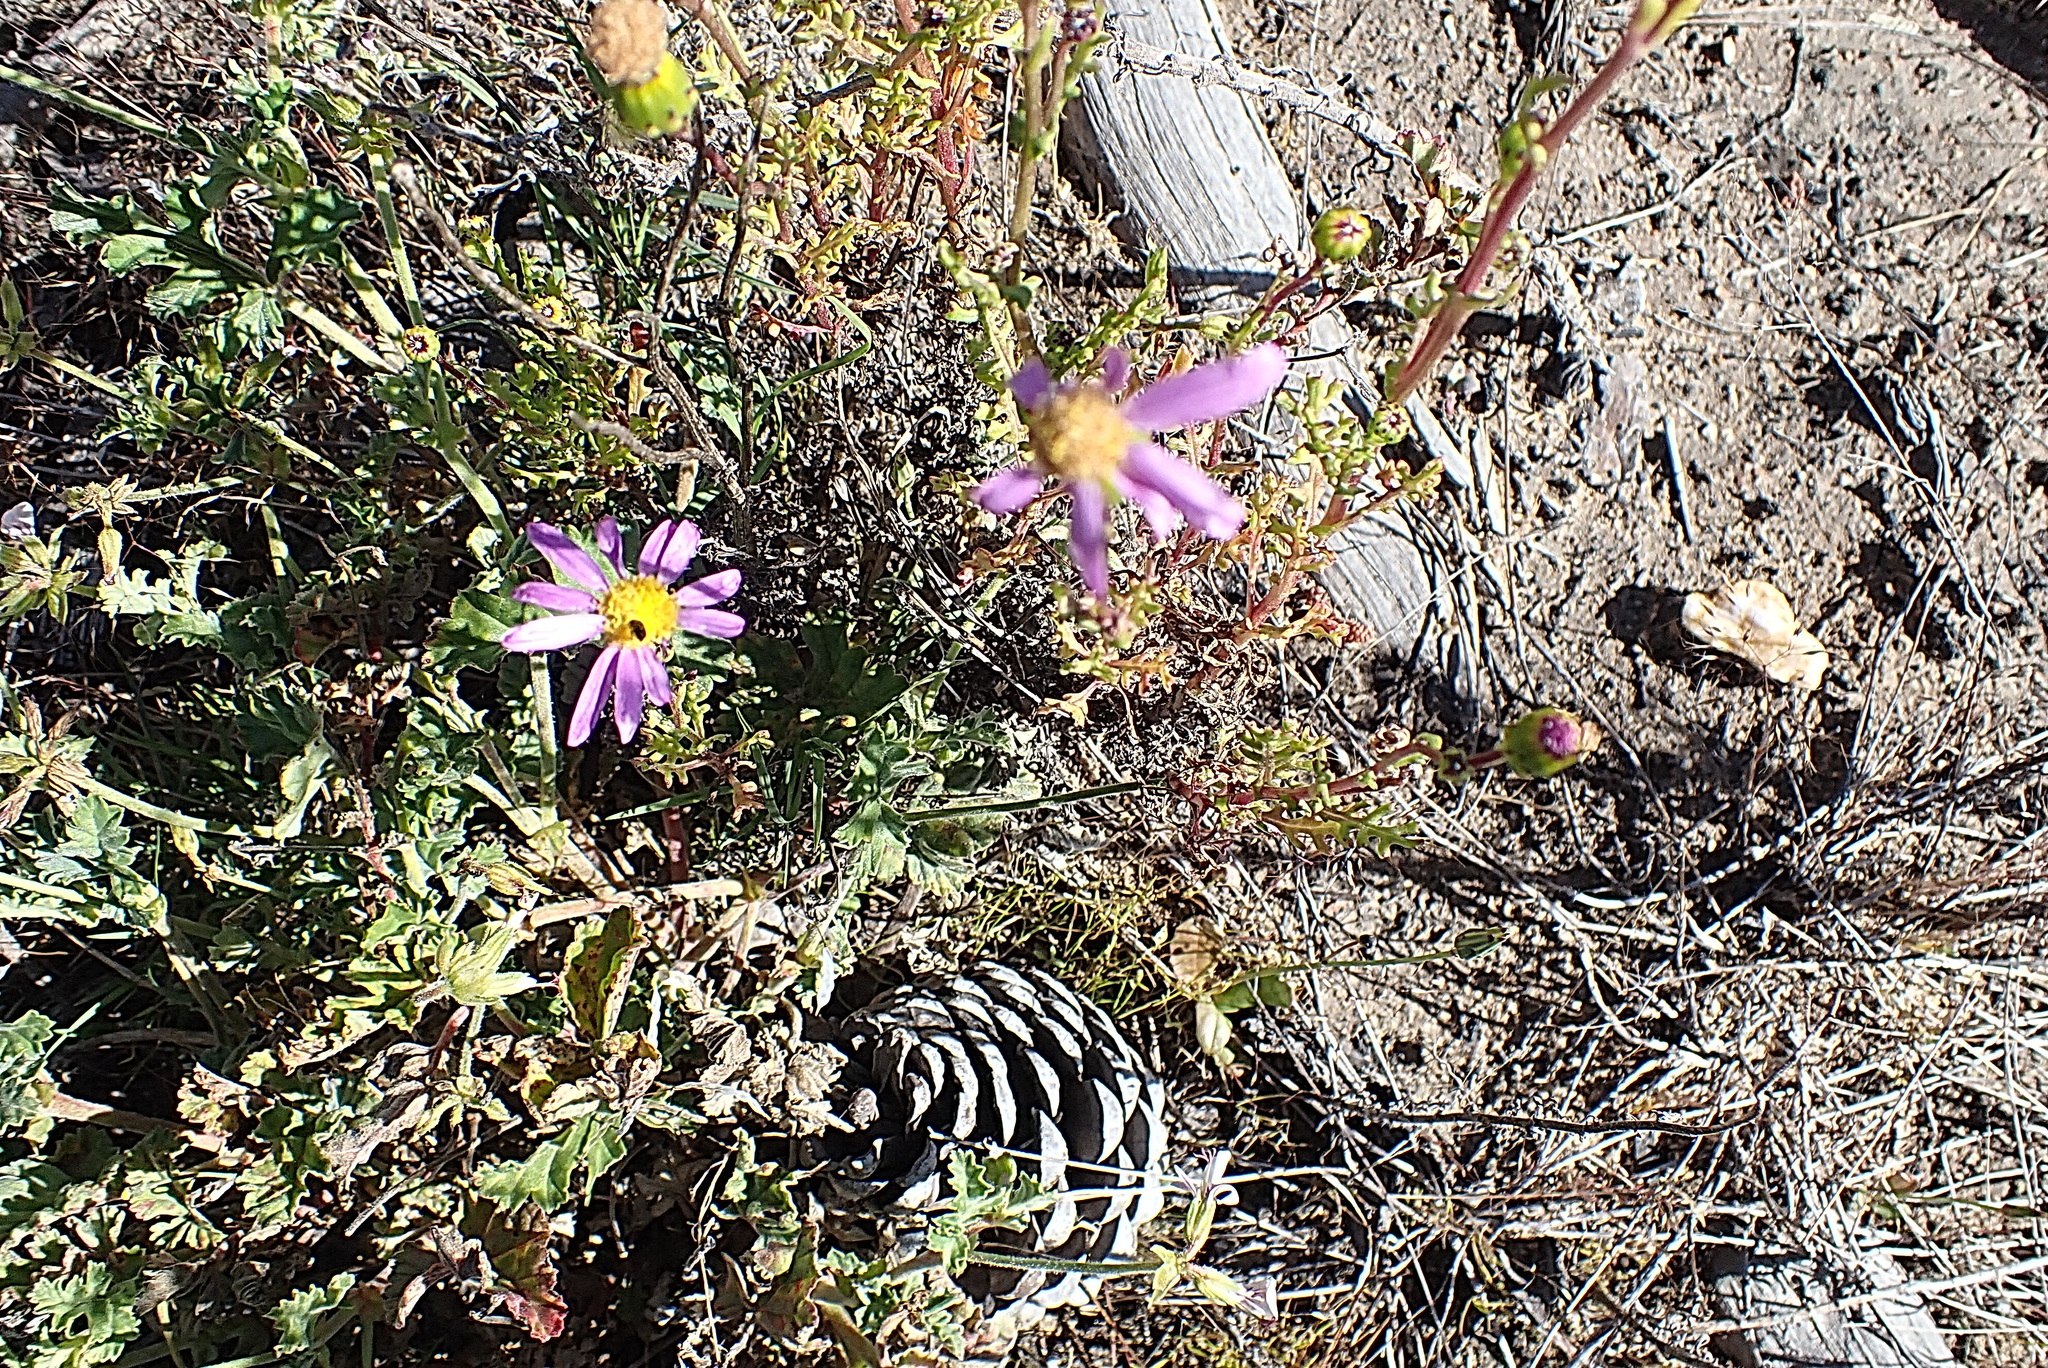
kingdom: Plantae
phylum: Tracheophyta
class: Magnoliopsida
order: Asterales
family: Asteraceae
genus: Senecio
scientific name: Senecio elegans
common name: Purple groundsel
